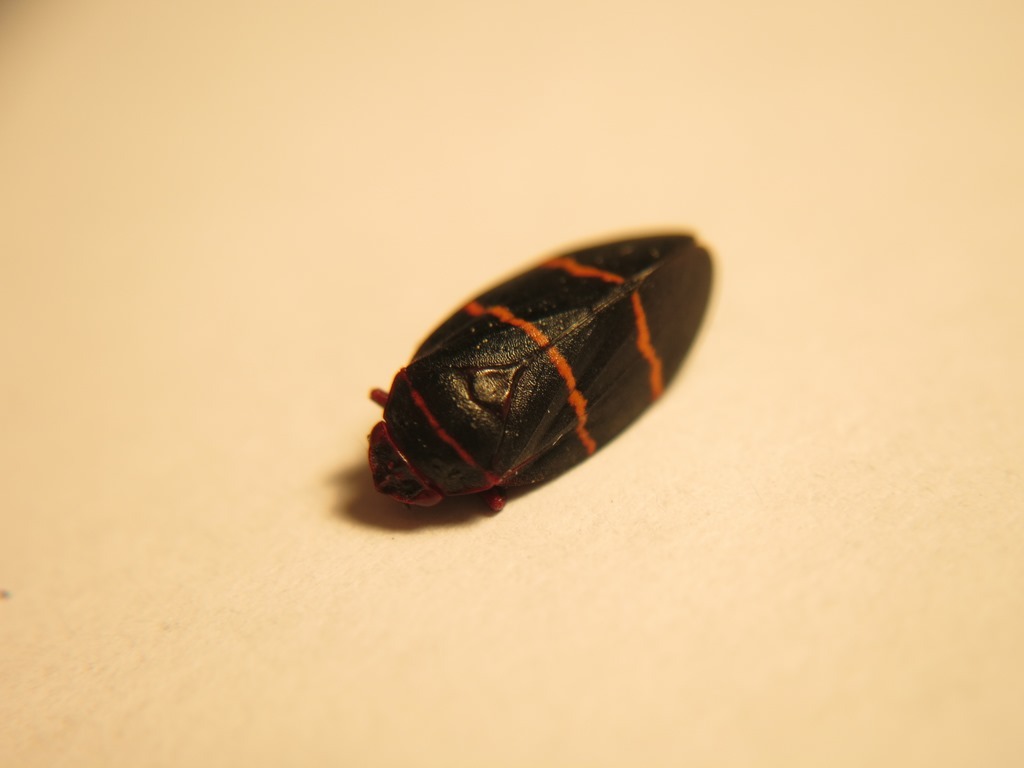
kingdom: Animalia
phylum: Arthropoda
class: Insecta
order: Hemiptera
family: Cercopidae
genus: Prosapia
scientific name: Prosapia bicincta
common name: Twolined spittlebug
